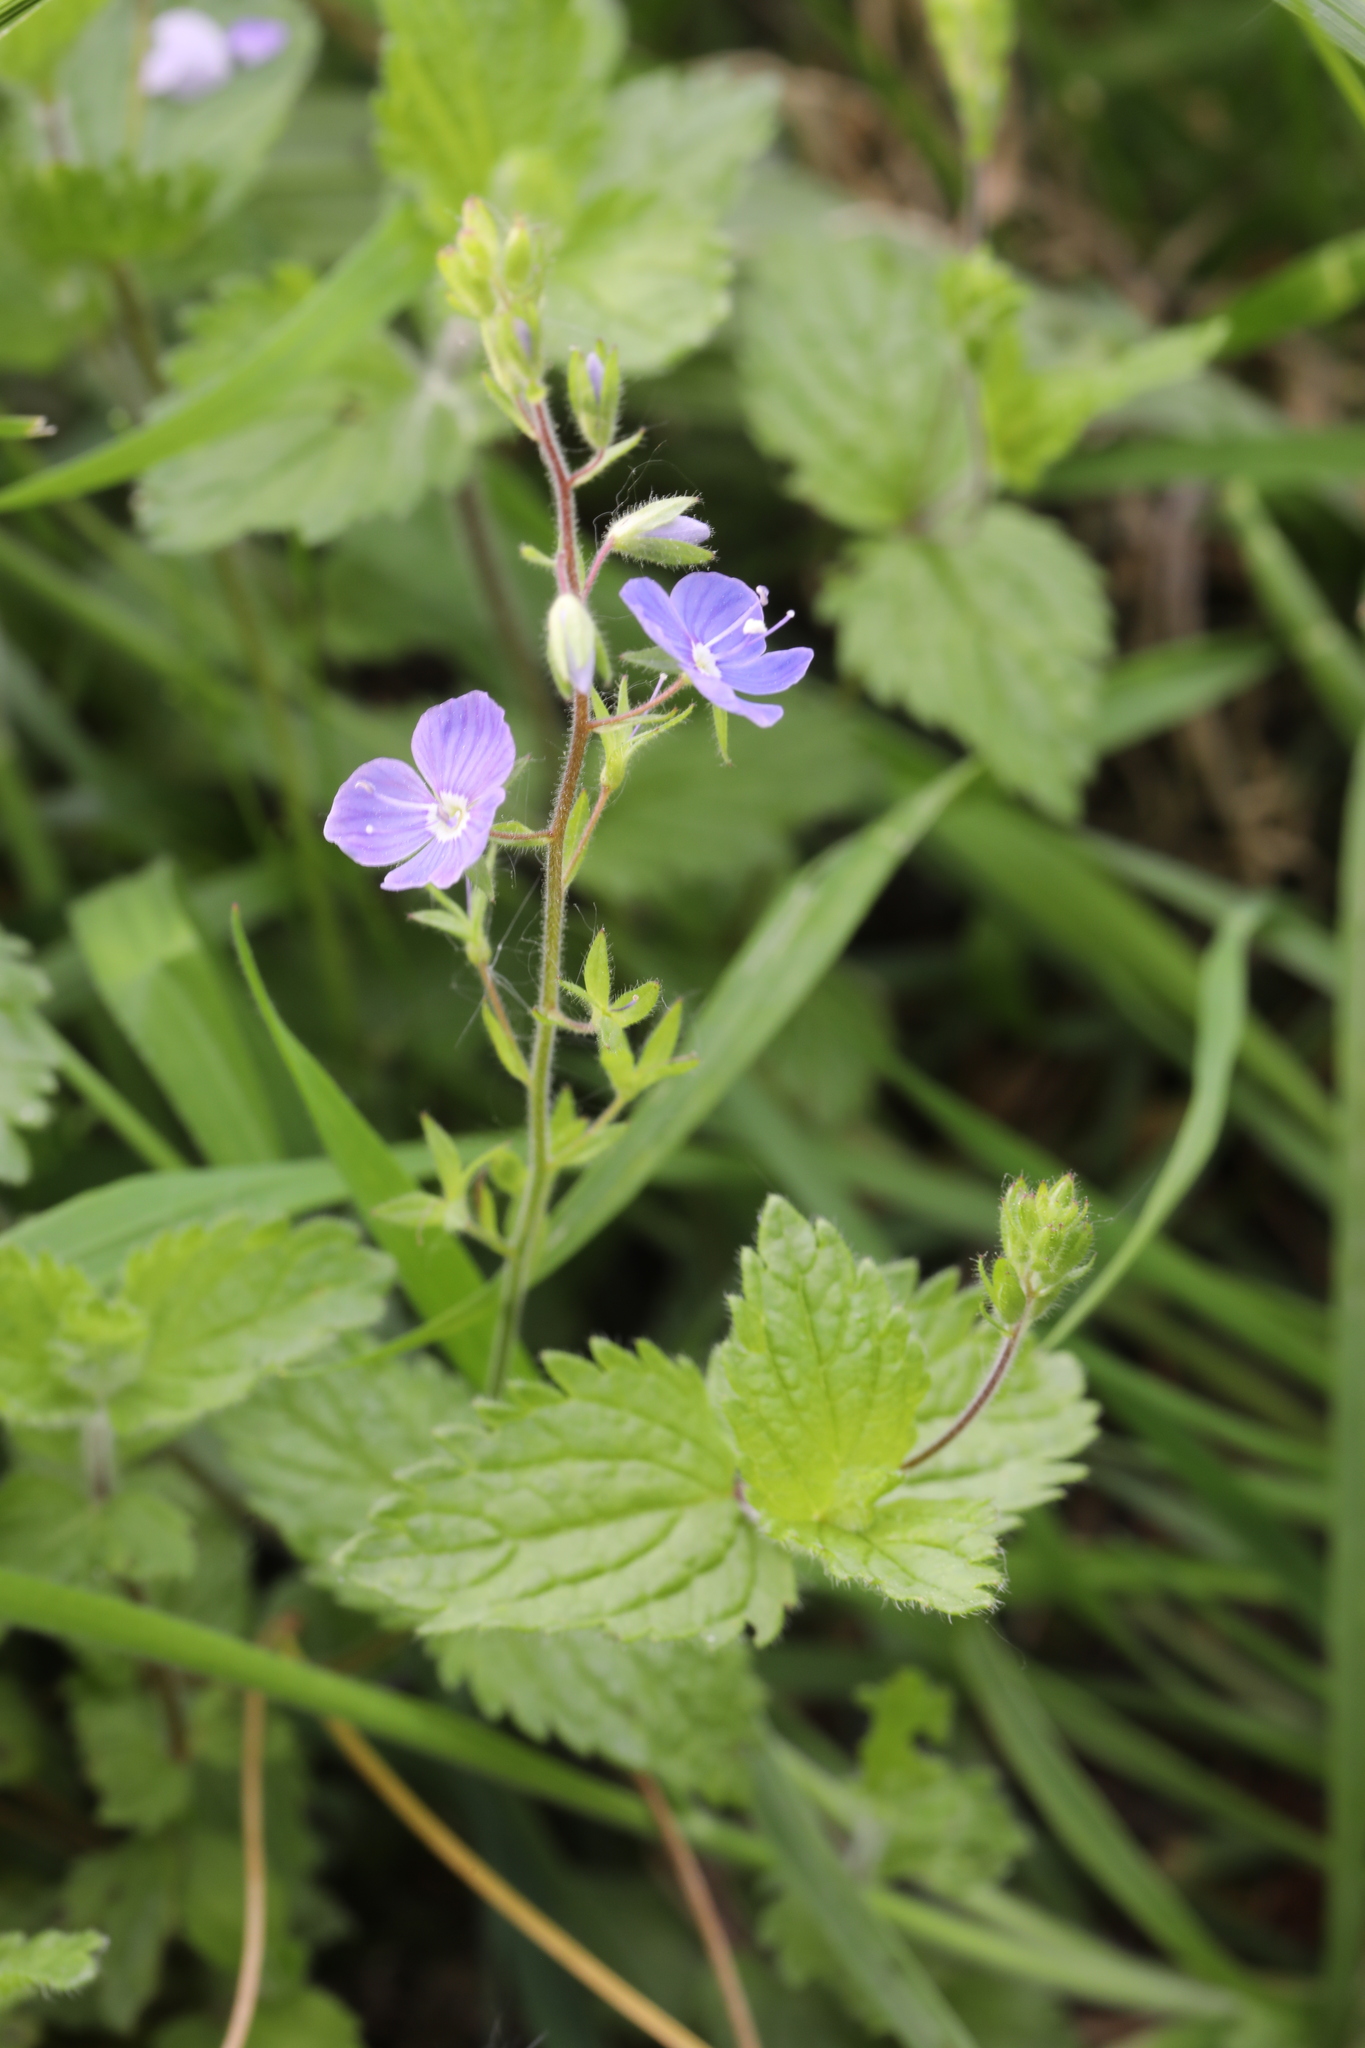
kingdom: Plantae
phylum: Tracheophyta
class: Magnoliopsida
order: Lamiales
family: Plantaginaceae
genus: Veronica
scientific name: Veronica chamaedrys
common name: Germander speedwell
